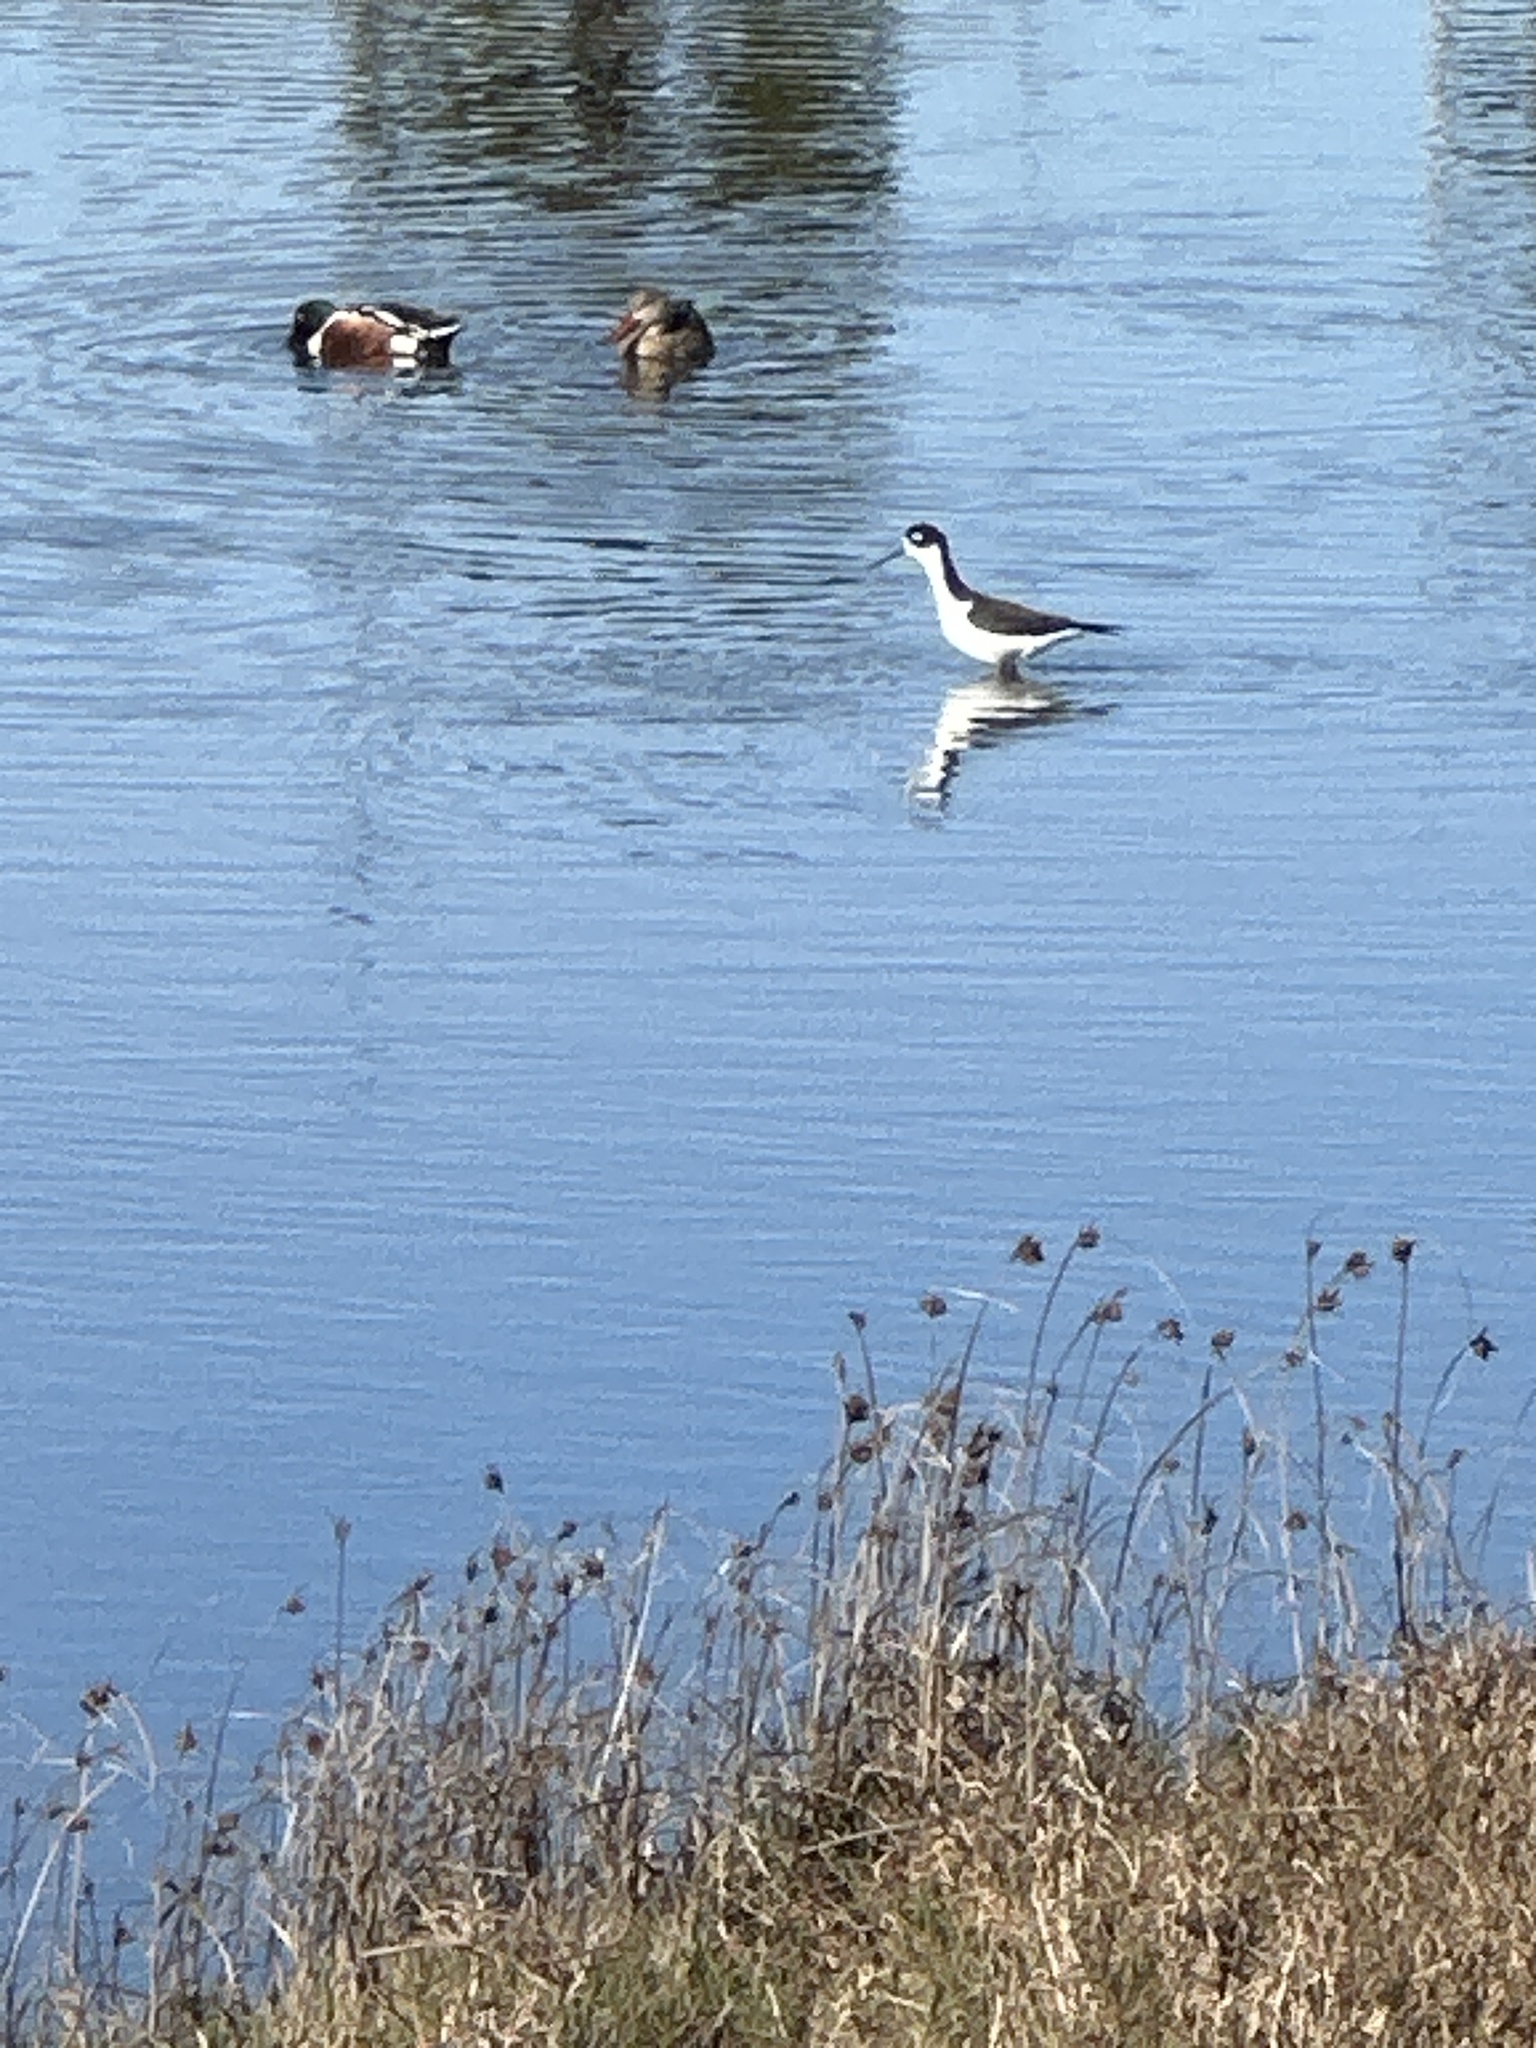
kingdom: Animalia
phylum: Chordata
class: Aves
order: Charadriiformes
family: Recurvirostridae
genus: Himantopus
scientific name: Himantopus mexicanus
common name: Black-necked stilt
